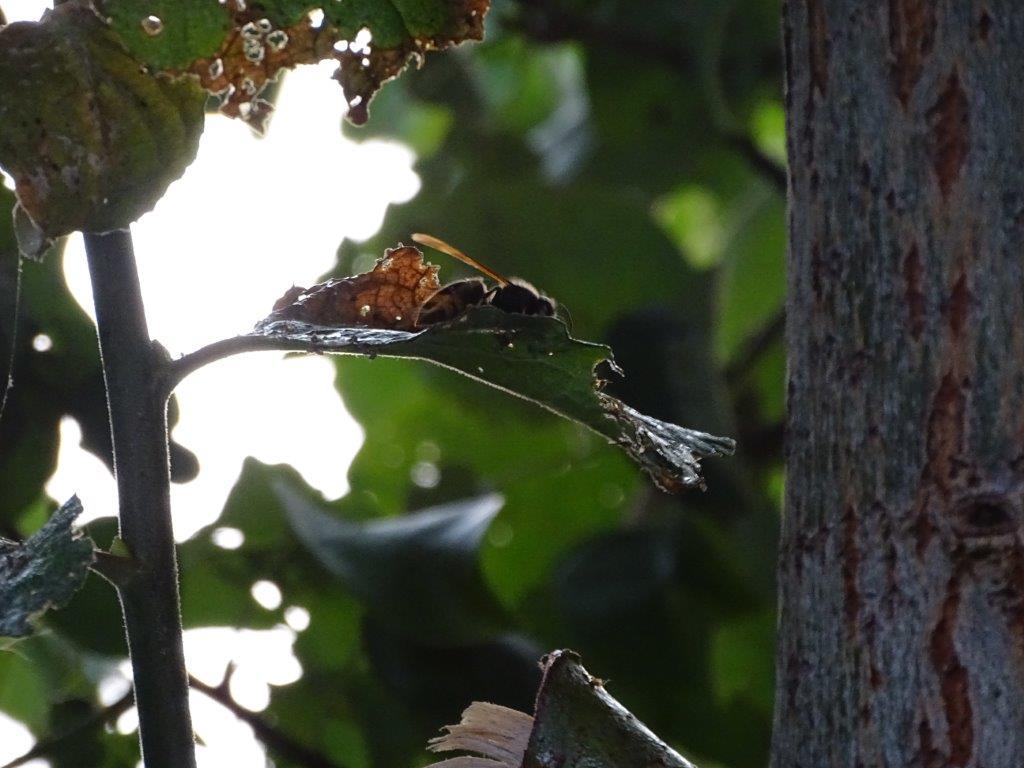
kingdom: Animalia
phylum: Arthropoda
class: Insecta
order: Hymenoptera
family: Vespidae
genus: Vespa
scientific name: Vespa velutina
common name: Asian hornet
